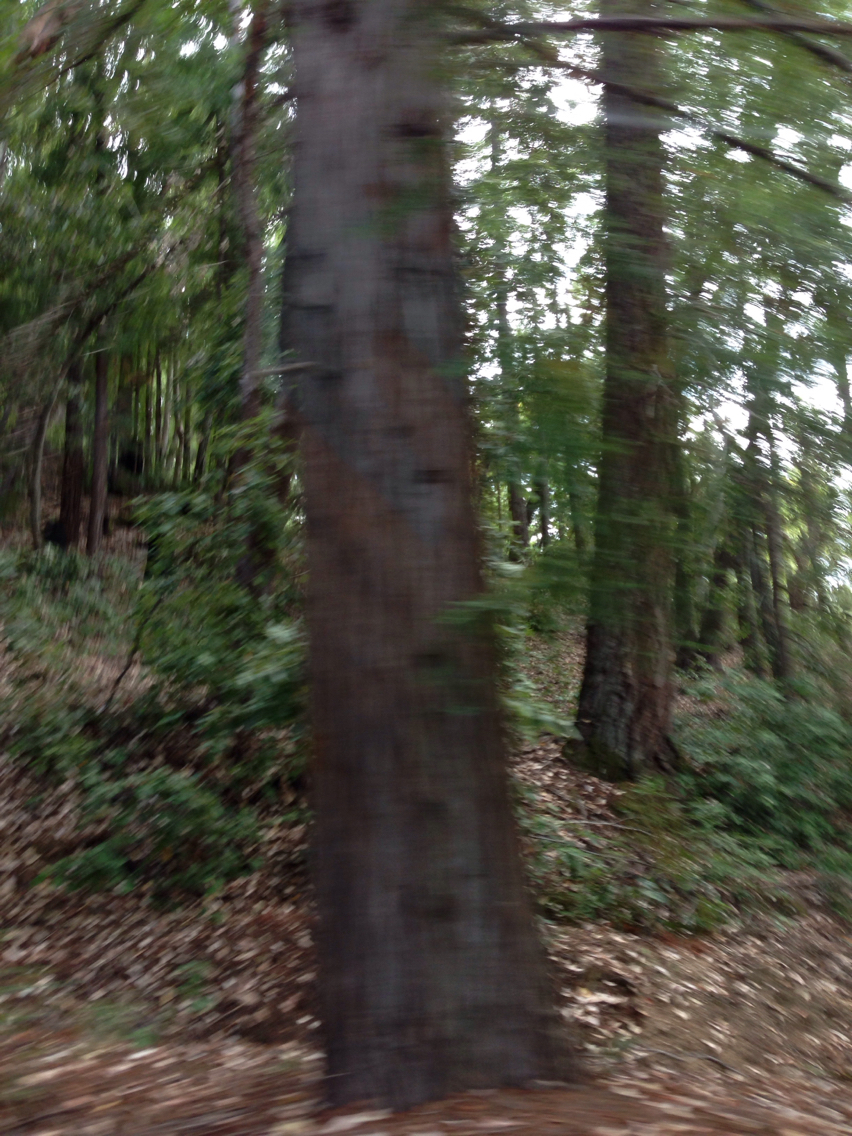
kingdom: Plantae
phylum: Tracheophyta
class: Pinopsida
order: Pinales
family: Cupressaceae
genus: Sequoia
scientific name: Sequoia sempervirens
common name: Coast redwood
